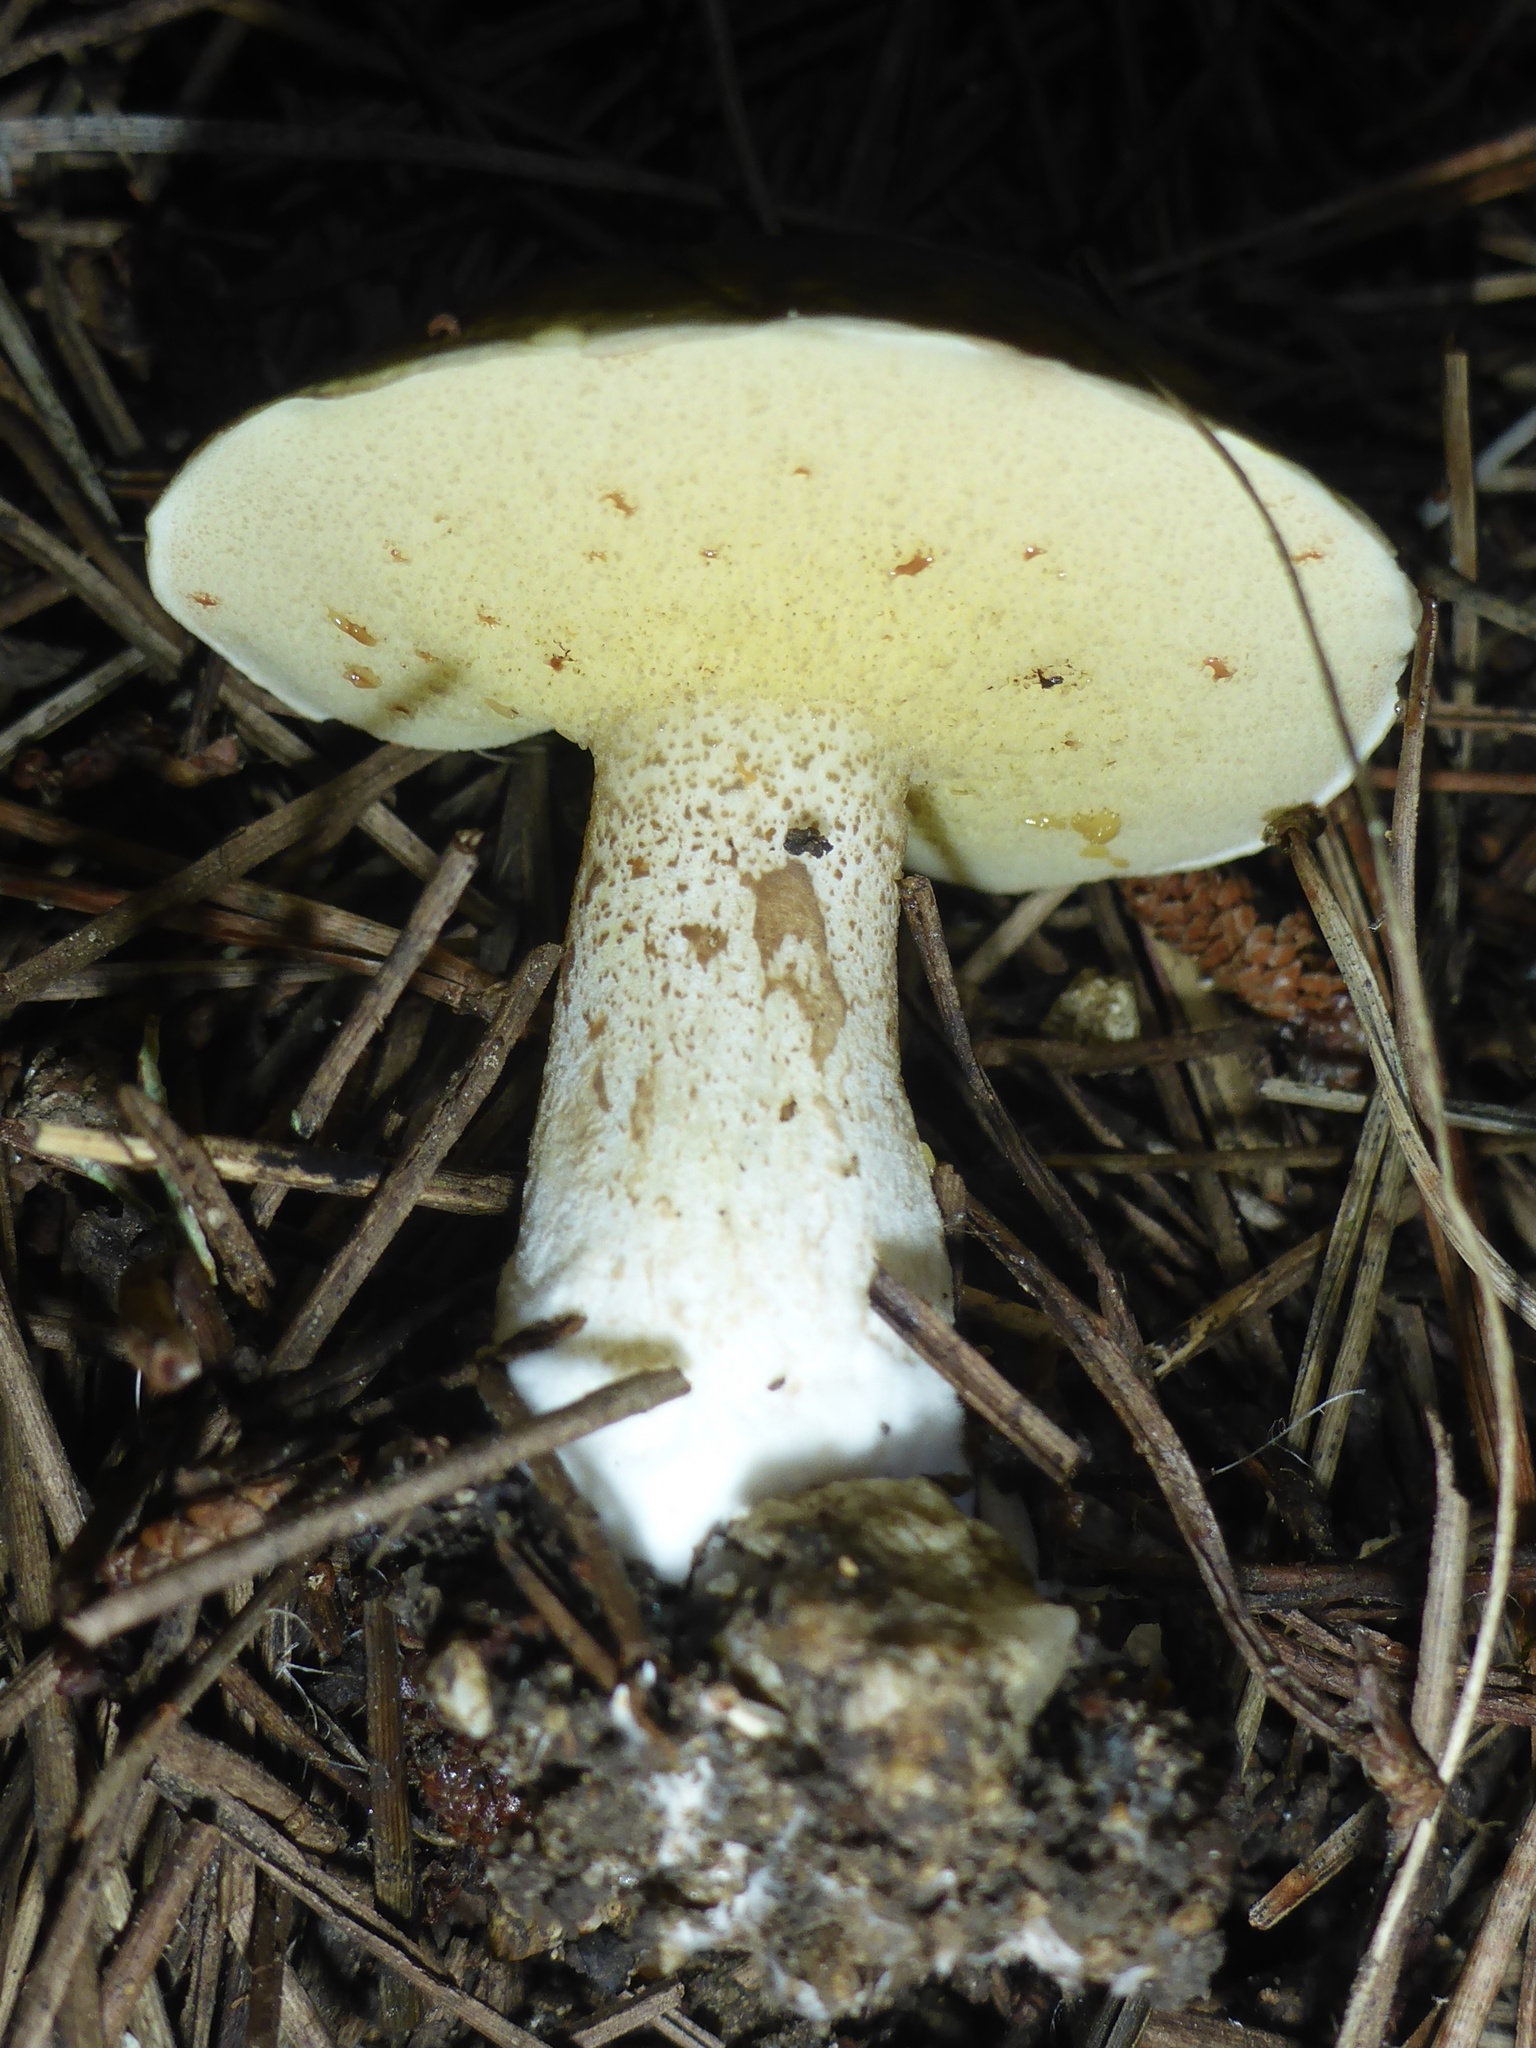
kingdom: Fungi
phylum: Basidiomycota
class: Agaricomycetes
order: Boletales
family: Suillaceae
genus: Suillus
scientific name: Suillus pungens
